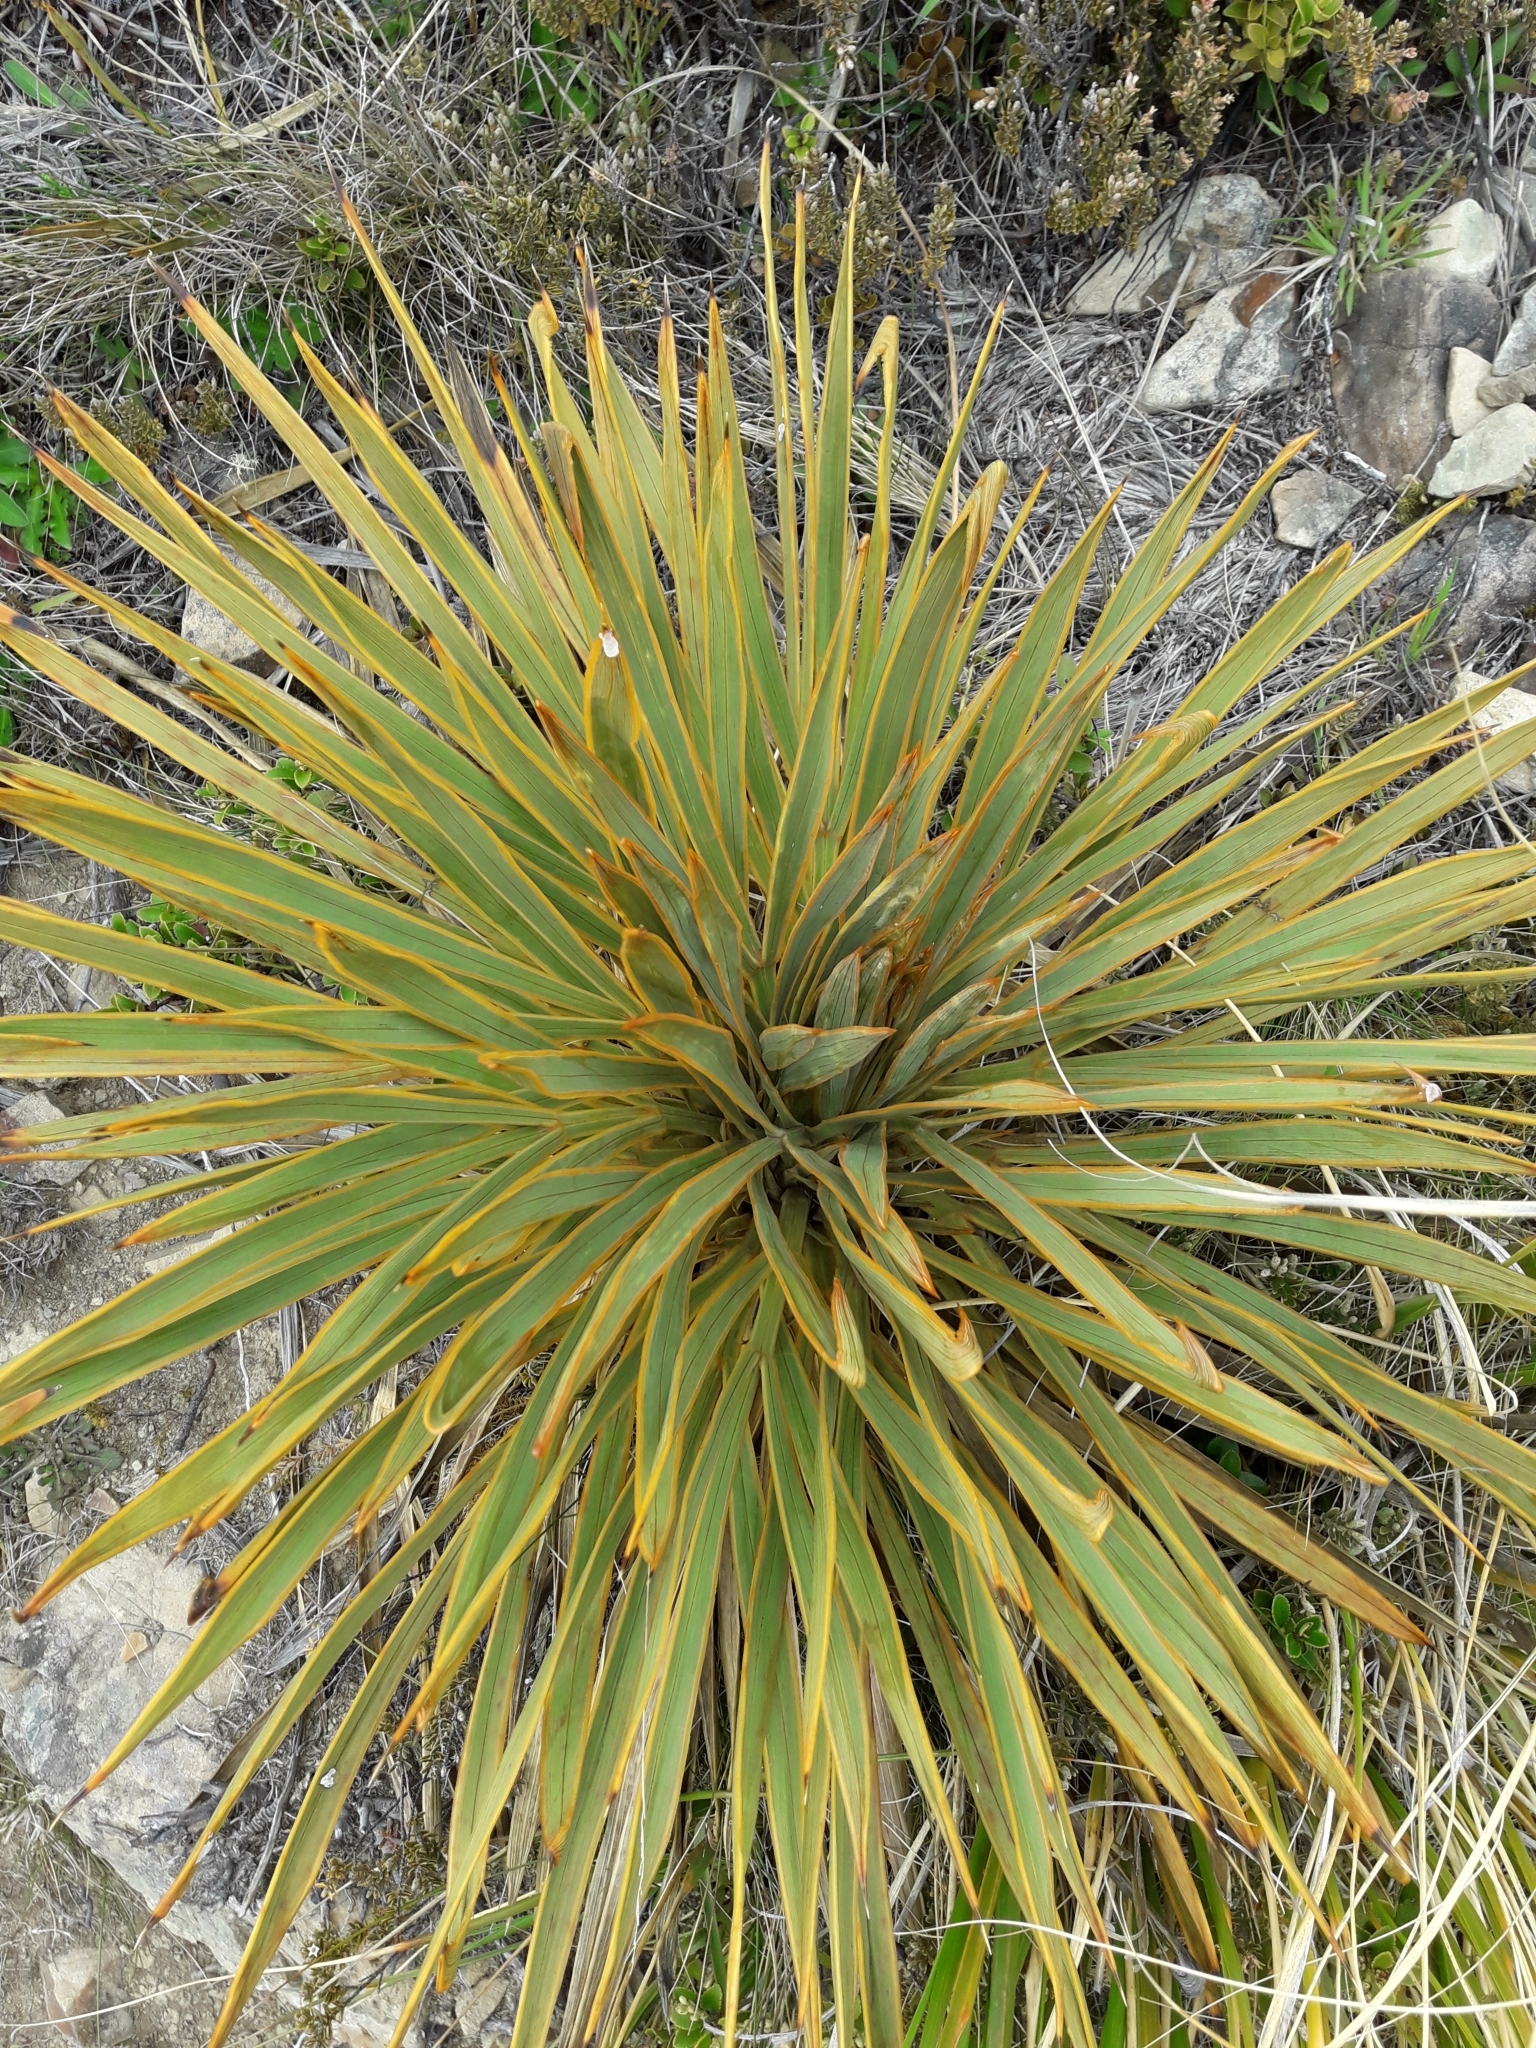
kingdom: Plantae
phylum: Tracheophyta
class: Magnoliopsida
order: Apiales
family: Apiaceae
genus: Aciphylla
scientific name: Aciphylla aurea
